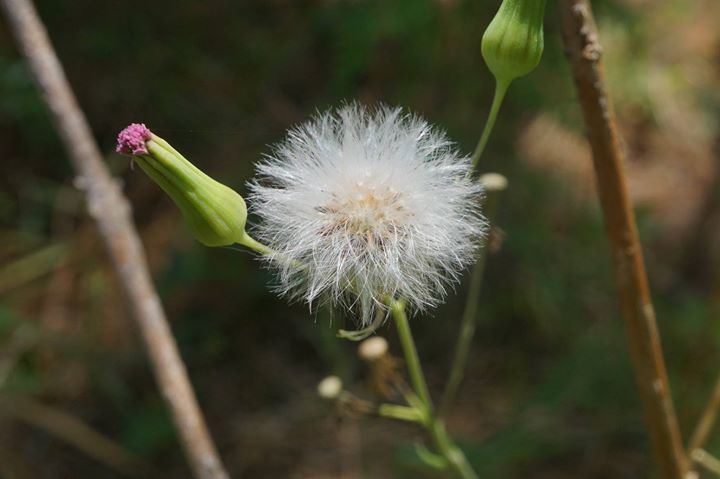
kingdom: Plantae
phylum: Tracheophyta
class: Magnoliopsida
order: Asterales
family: Asteraceae
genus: Emilia
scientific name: Emilia sonchifolia
